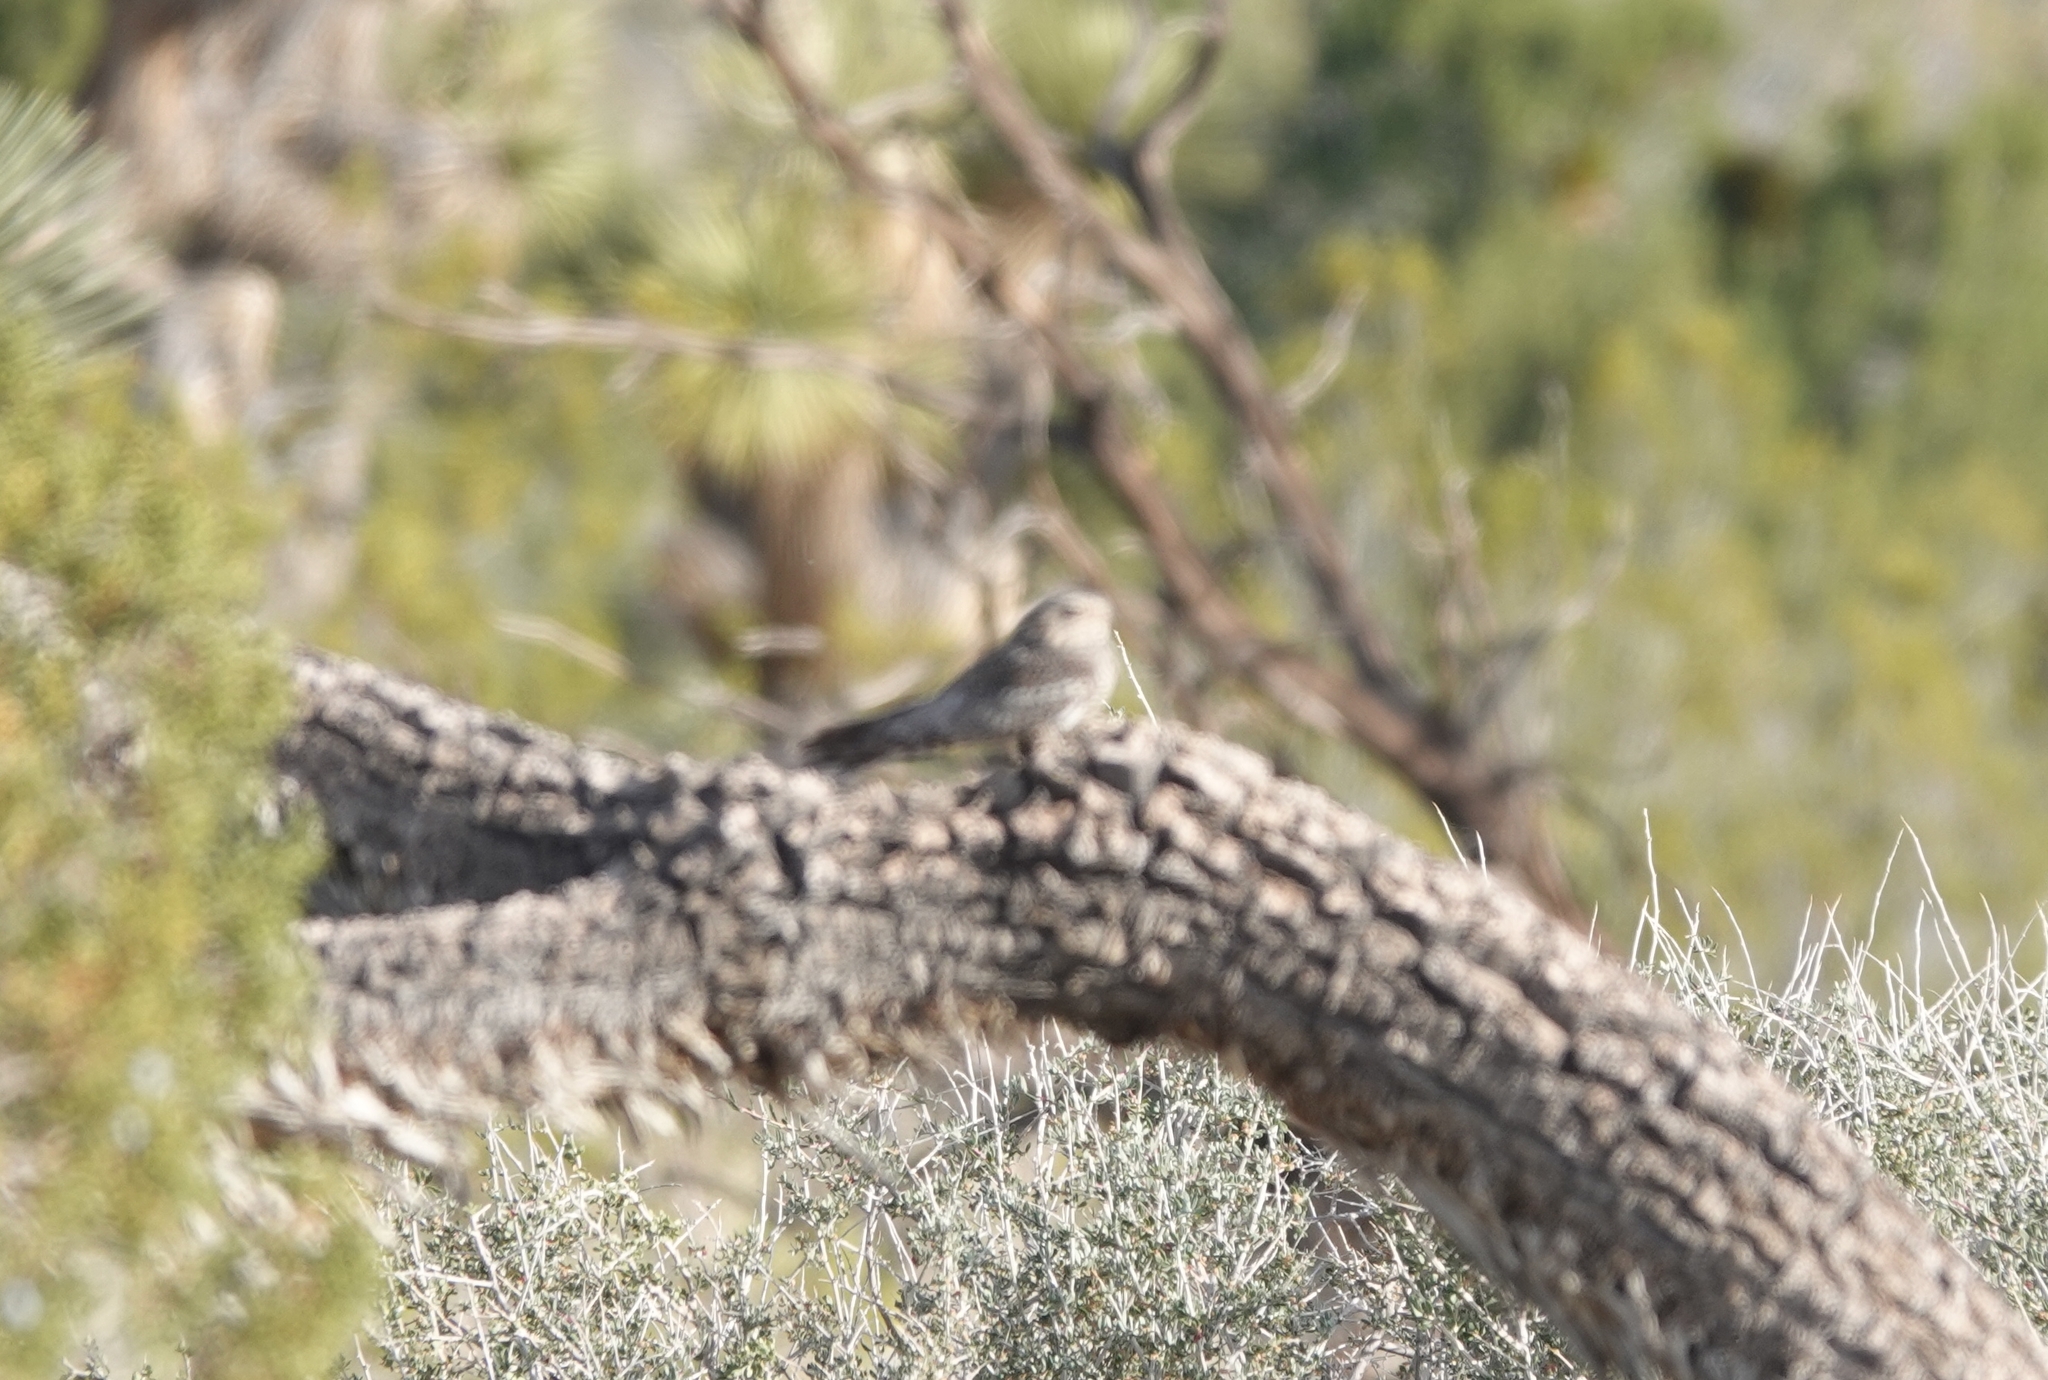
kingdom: Animalia
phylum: Chordata
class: Aves
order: Caprimulgiformes
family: Caprimulgidae
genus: Chordeiles
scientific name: Chordeiles acutipennis
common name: Lesser nighthawk
